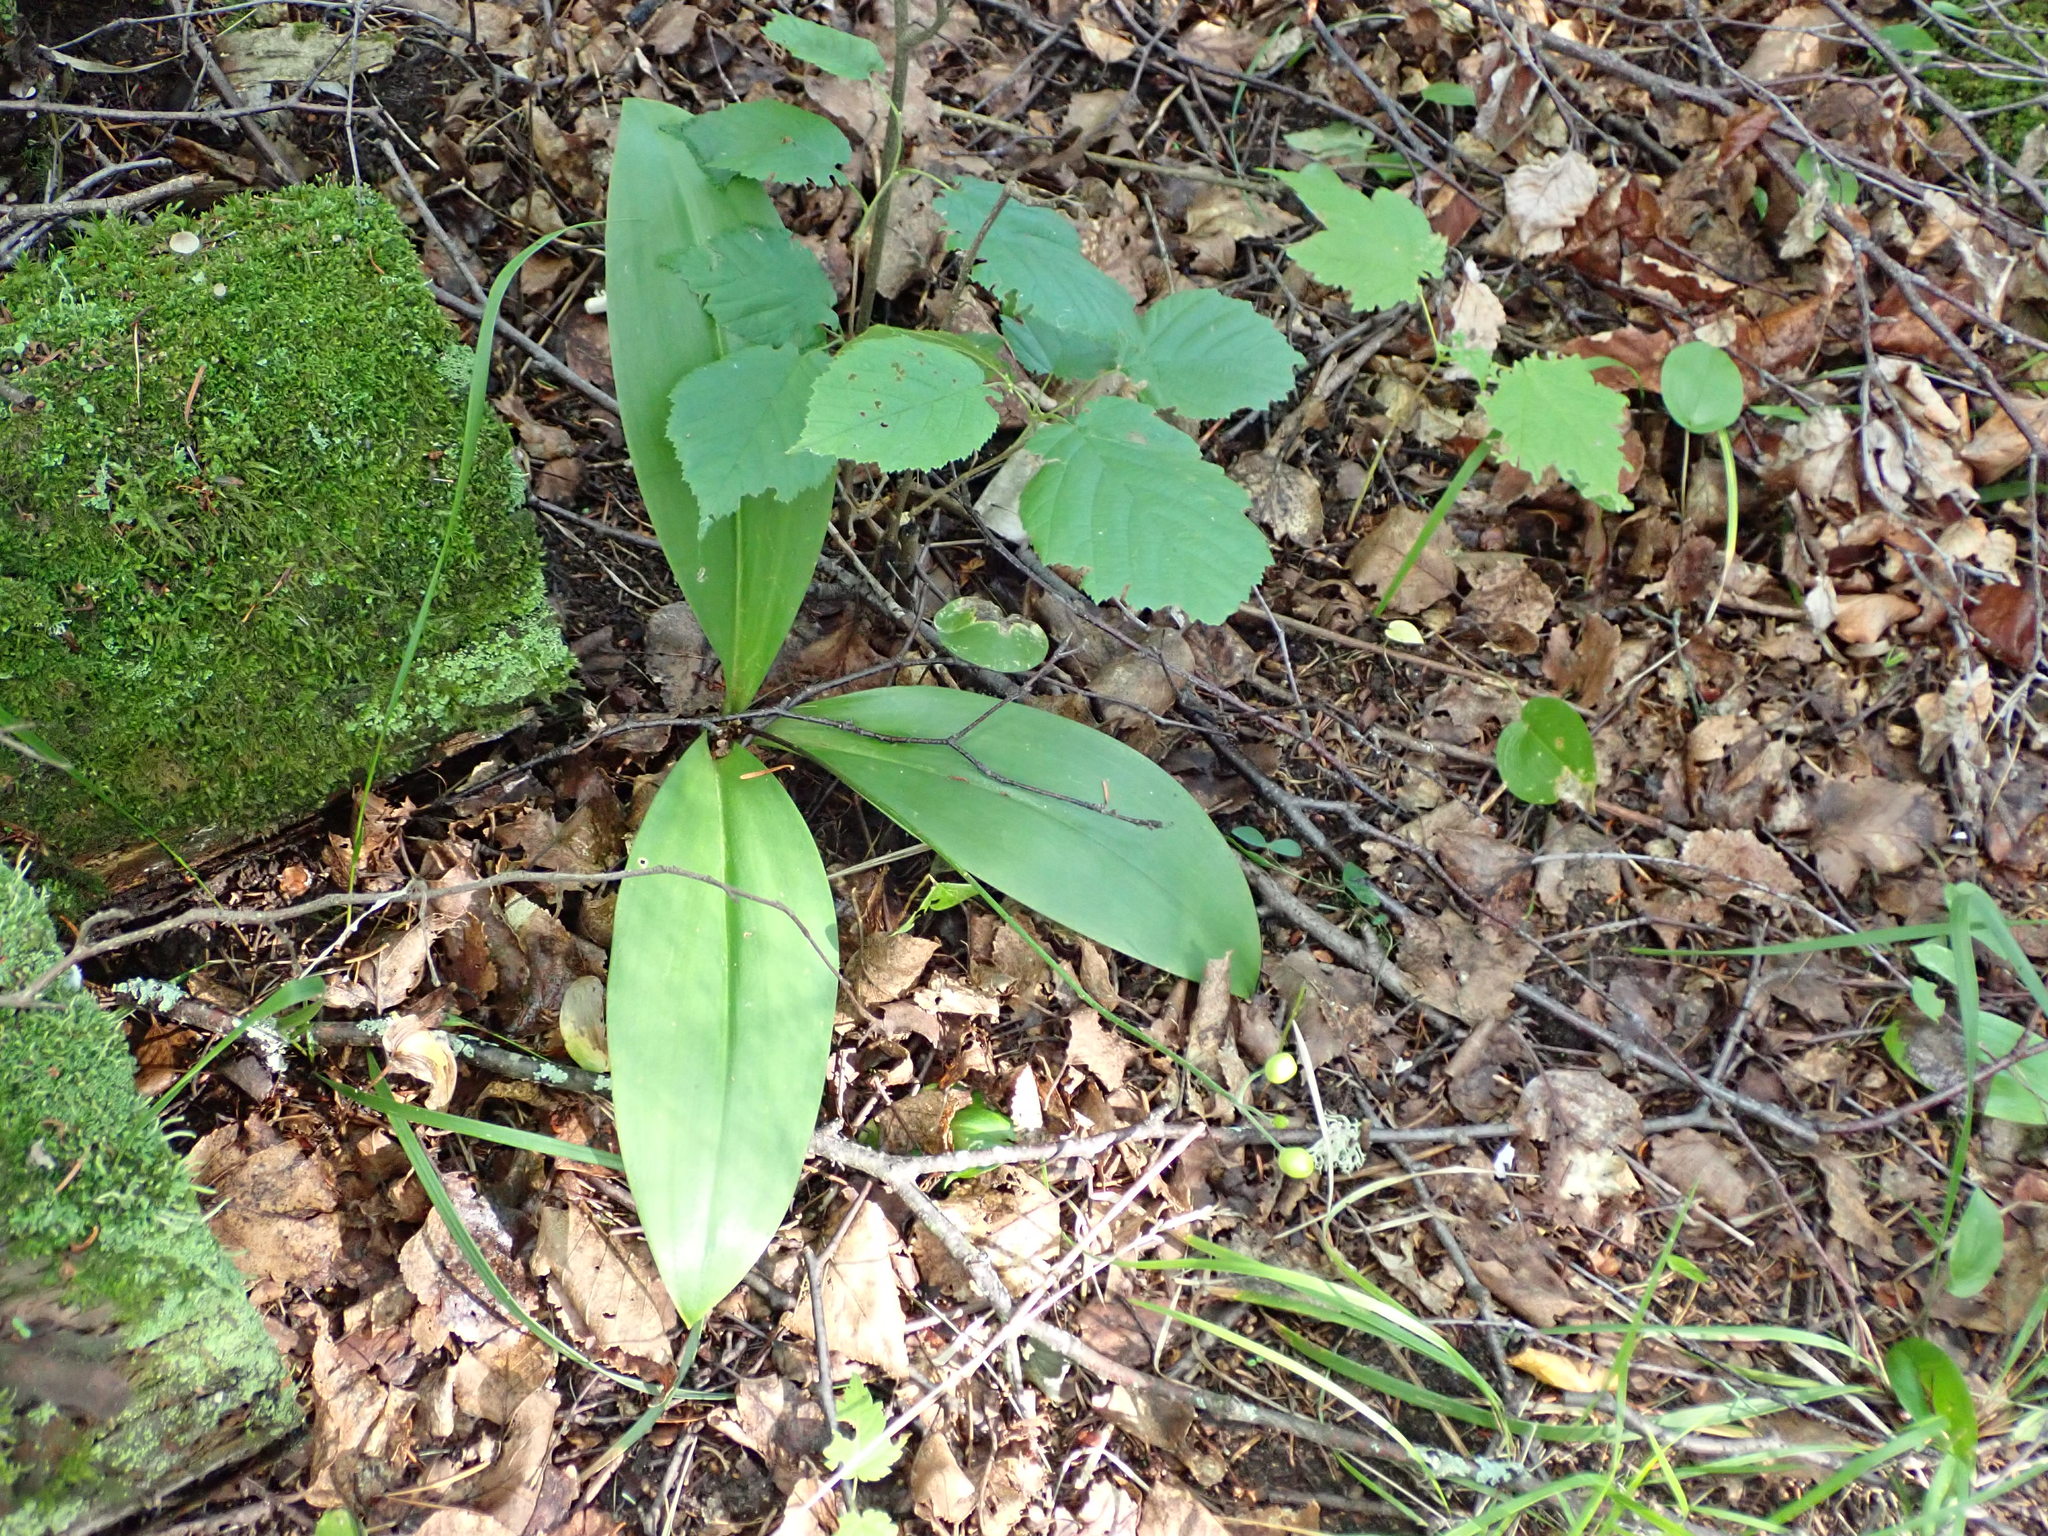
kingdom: Plantae
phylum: Tracheophyta
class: Liliopsida
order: Liliales
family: Liliaceae
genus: Clintonia
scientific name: Clintonia borealis
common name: Yellow clintonia
